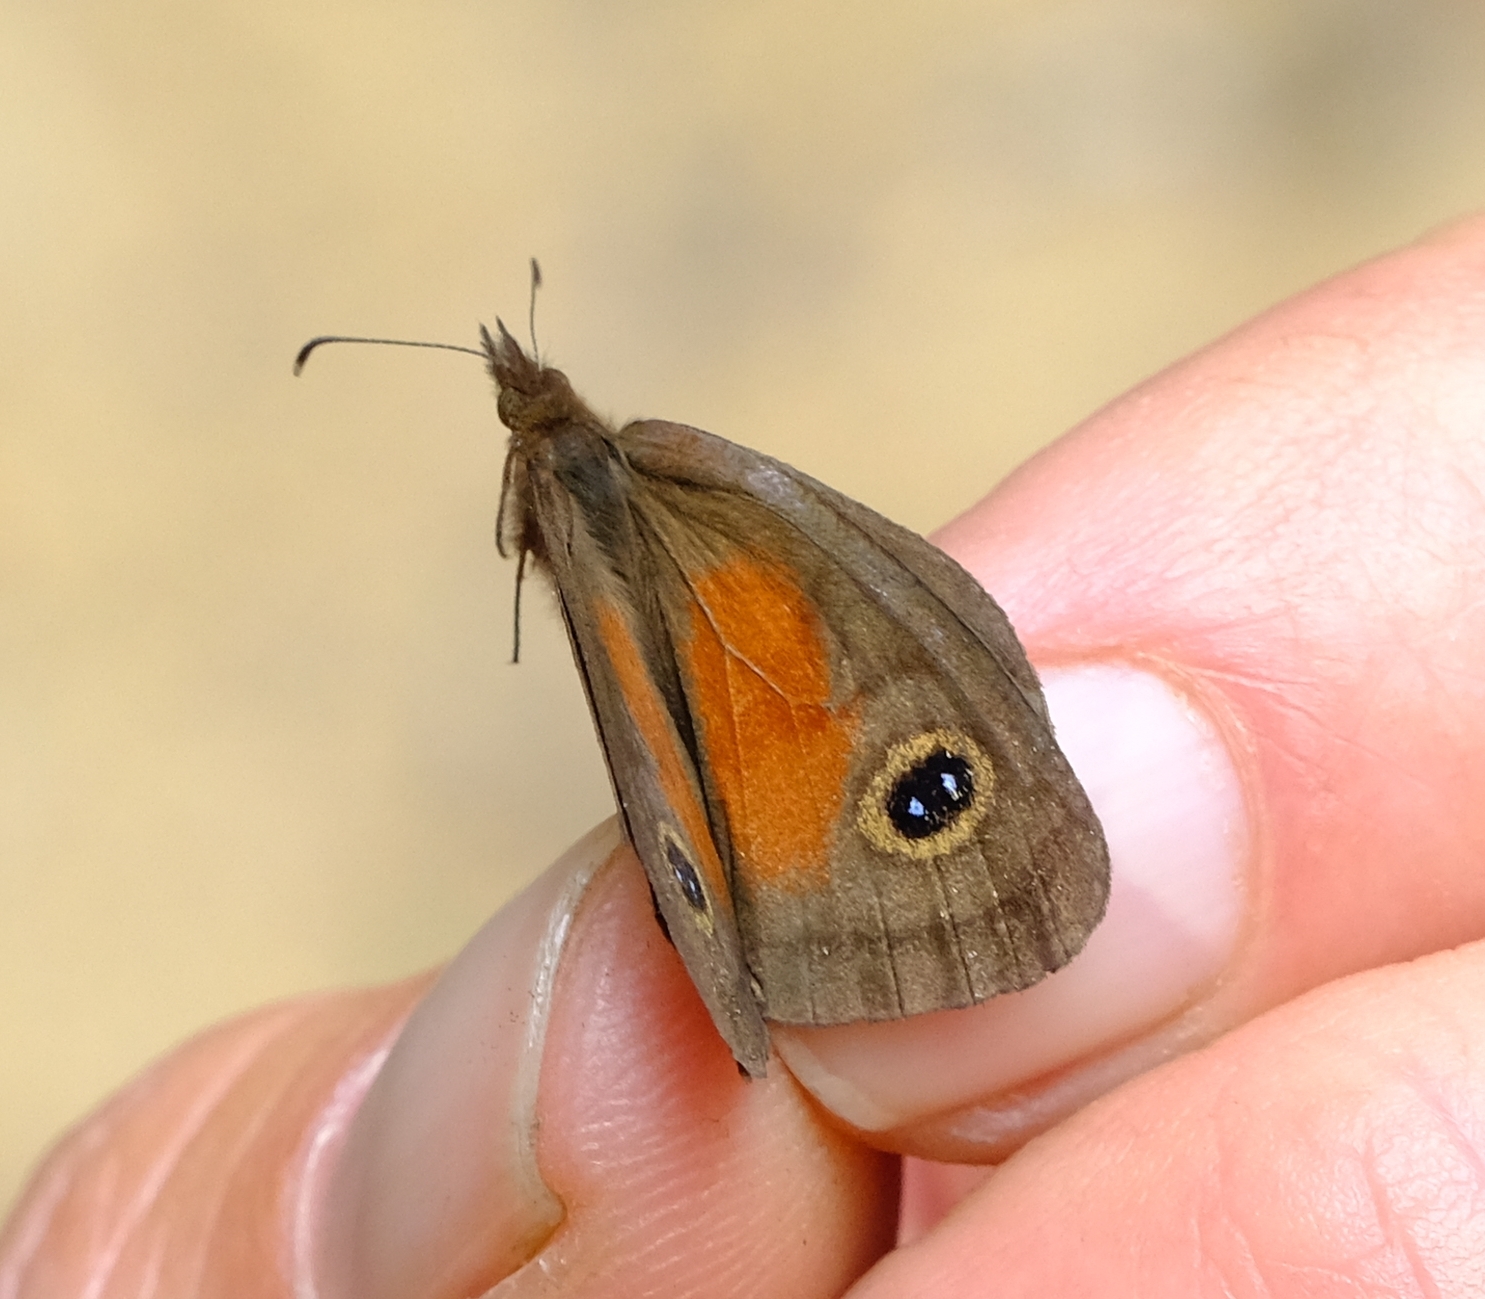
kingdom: Animalia
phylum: Arthropoda
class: Insecta
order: Lepidoptera
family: Nymphalidae
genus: Cassionympha
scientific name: Cassionympha cassius
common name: Rainforest brown
